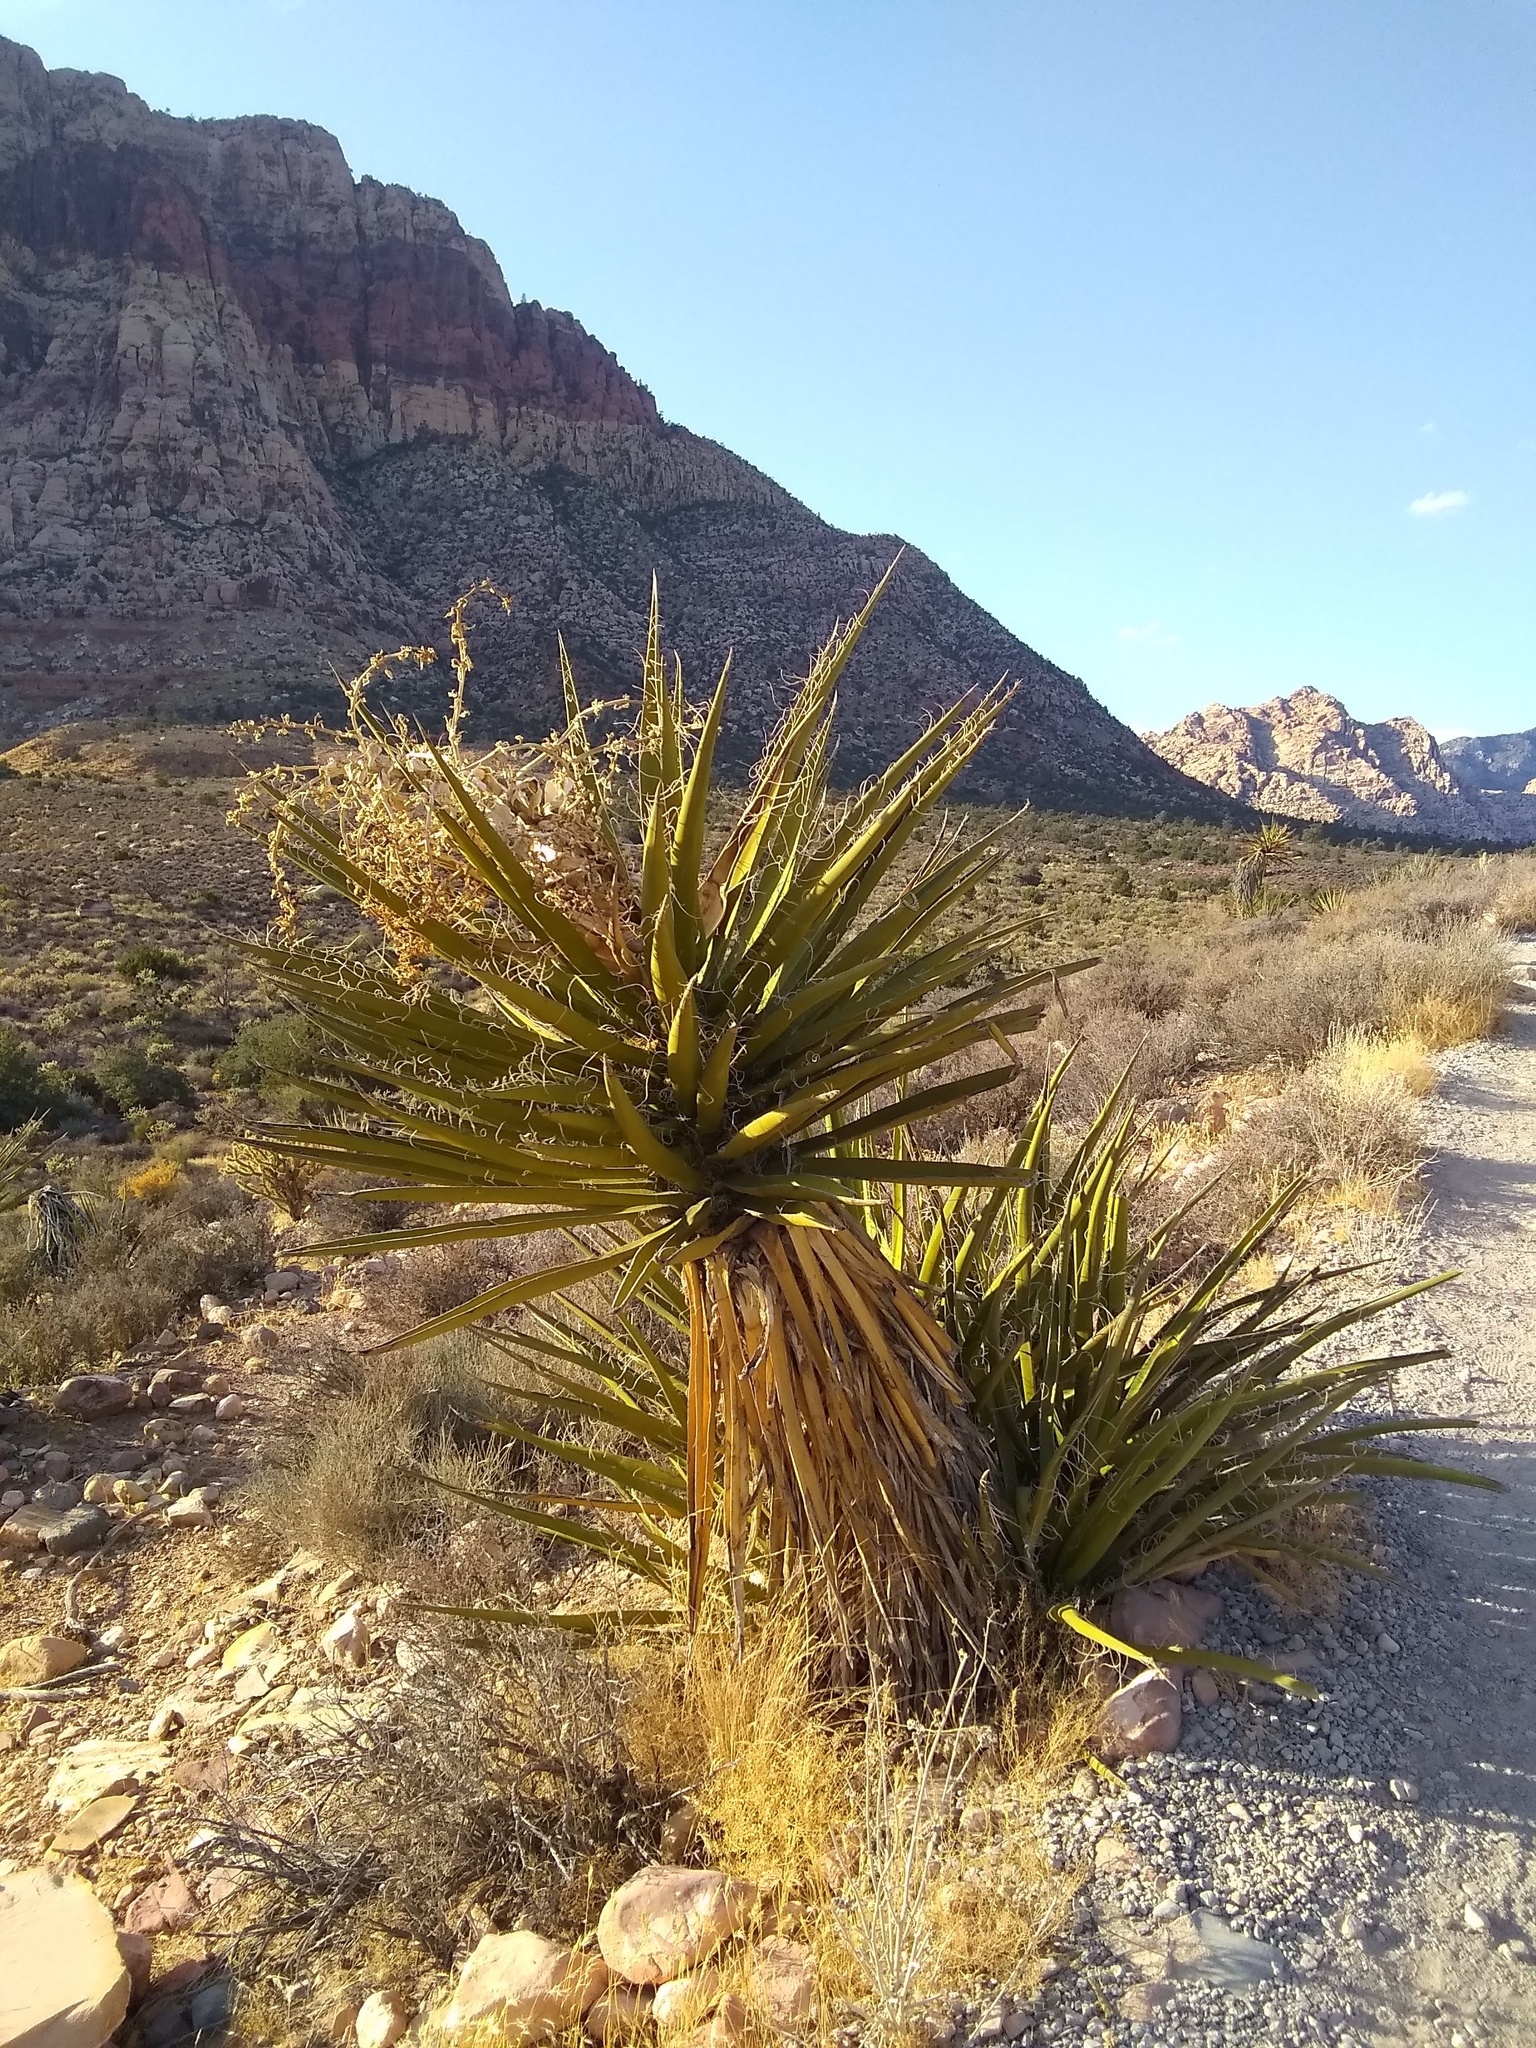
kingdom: Plantae
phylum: Tracheophyta
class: Liliopsida
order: Asparagales
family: Asparagaceae
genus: Yucca
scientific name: Yucca schidigera
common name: Mojave yucca
